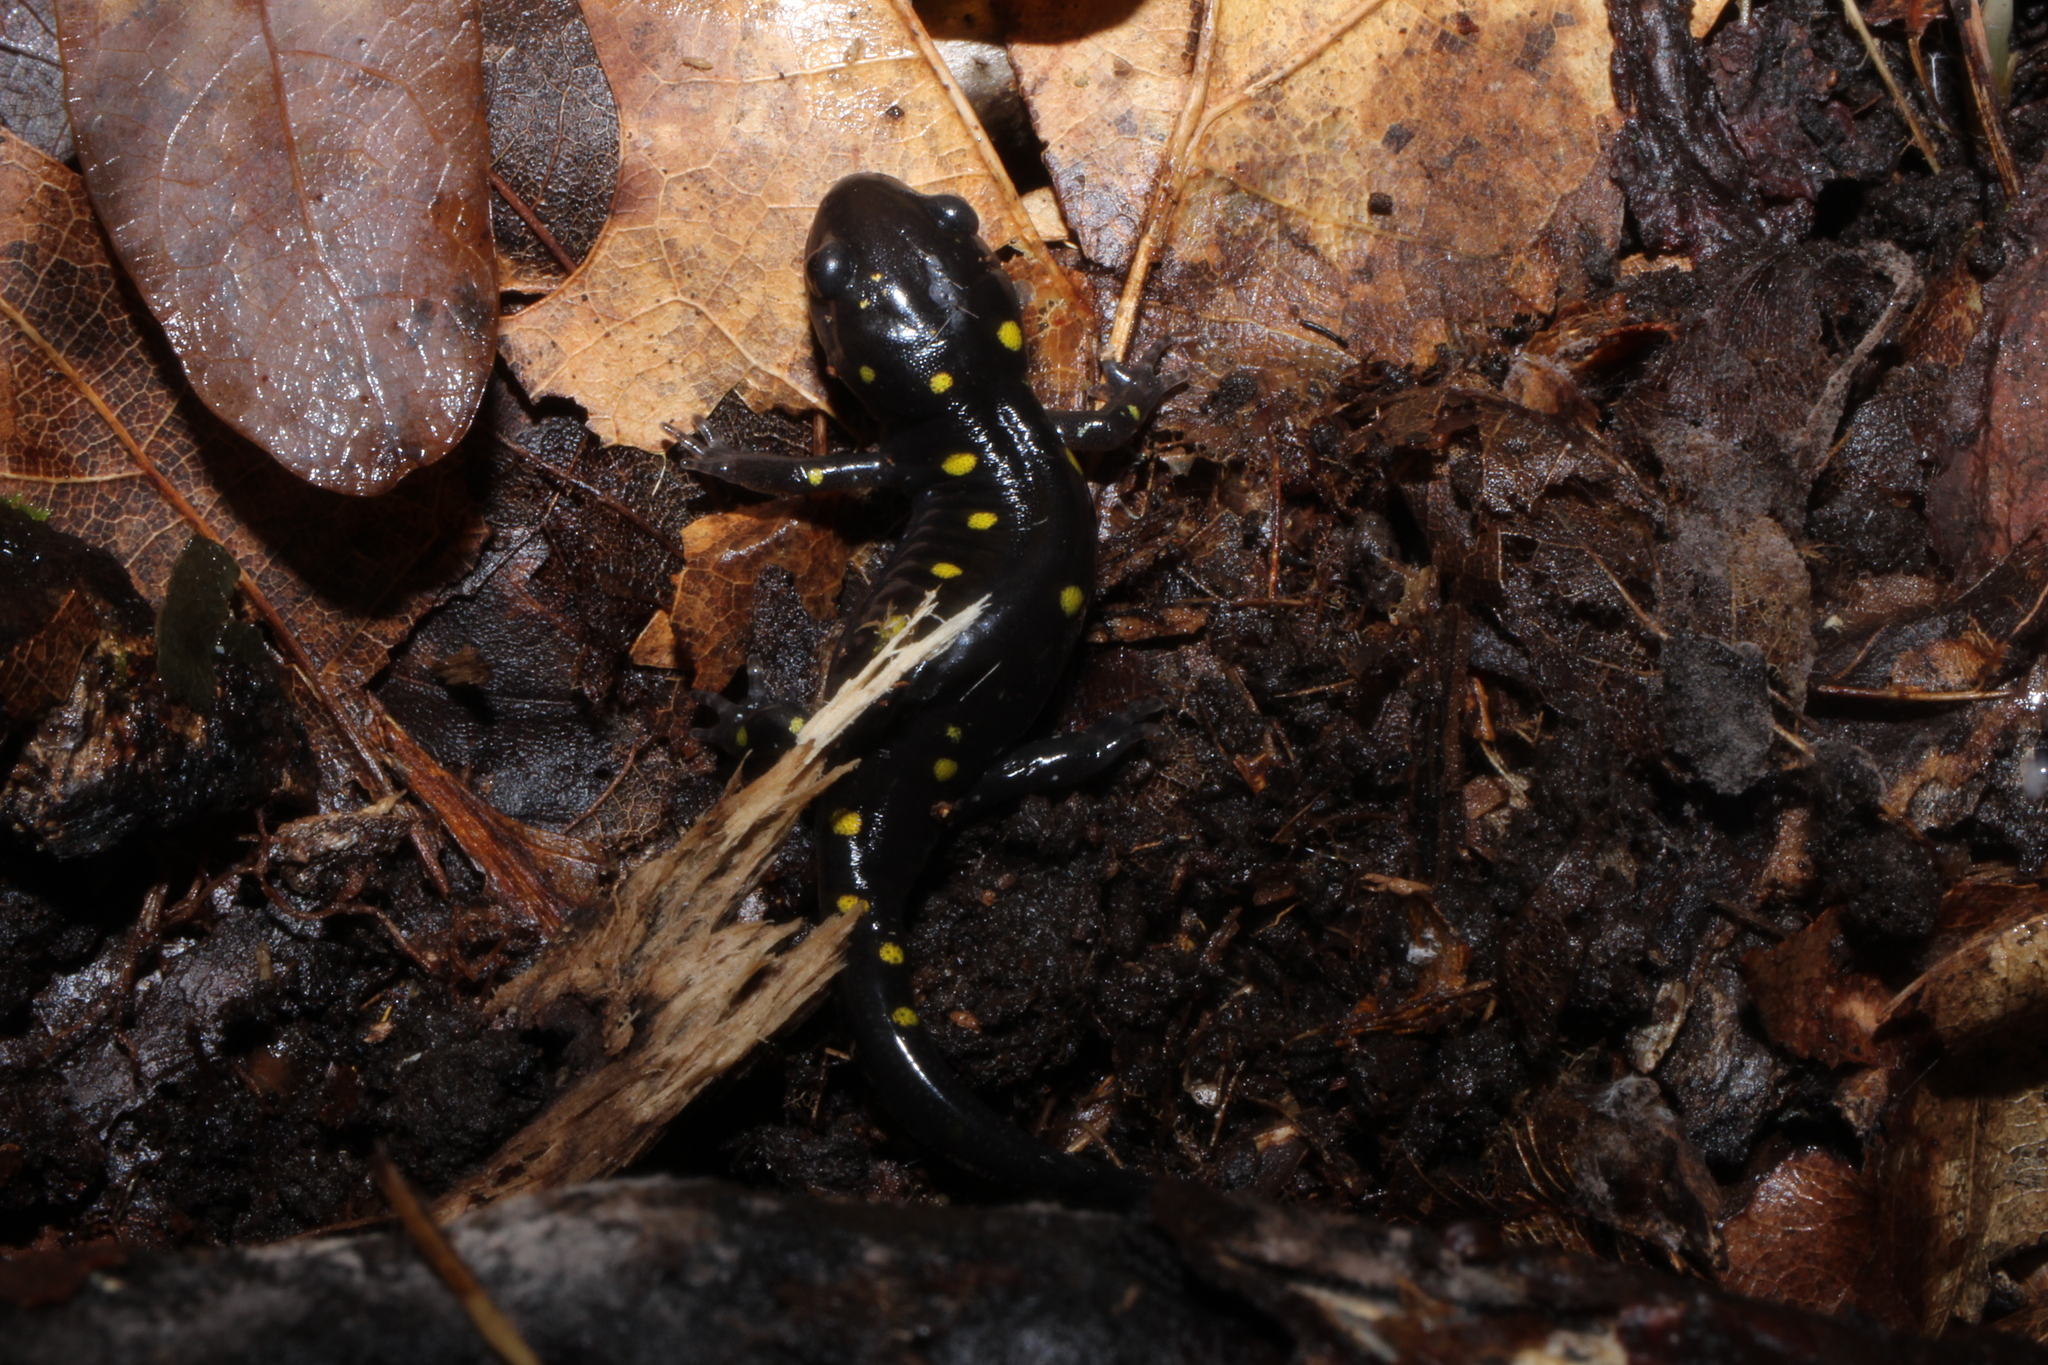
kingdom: Animalia
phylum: Chordata
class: Amphibia
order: Caudata
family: Ambystomatidae
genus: Ambystoma
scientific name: Ambystoma maculatum
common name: Spotted salamander
